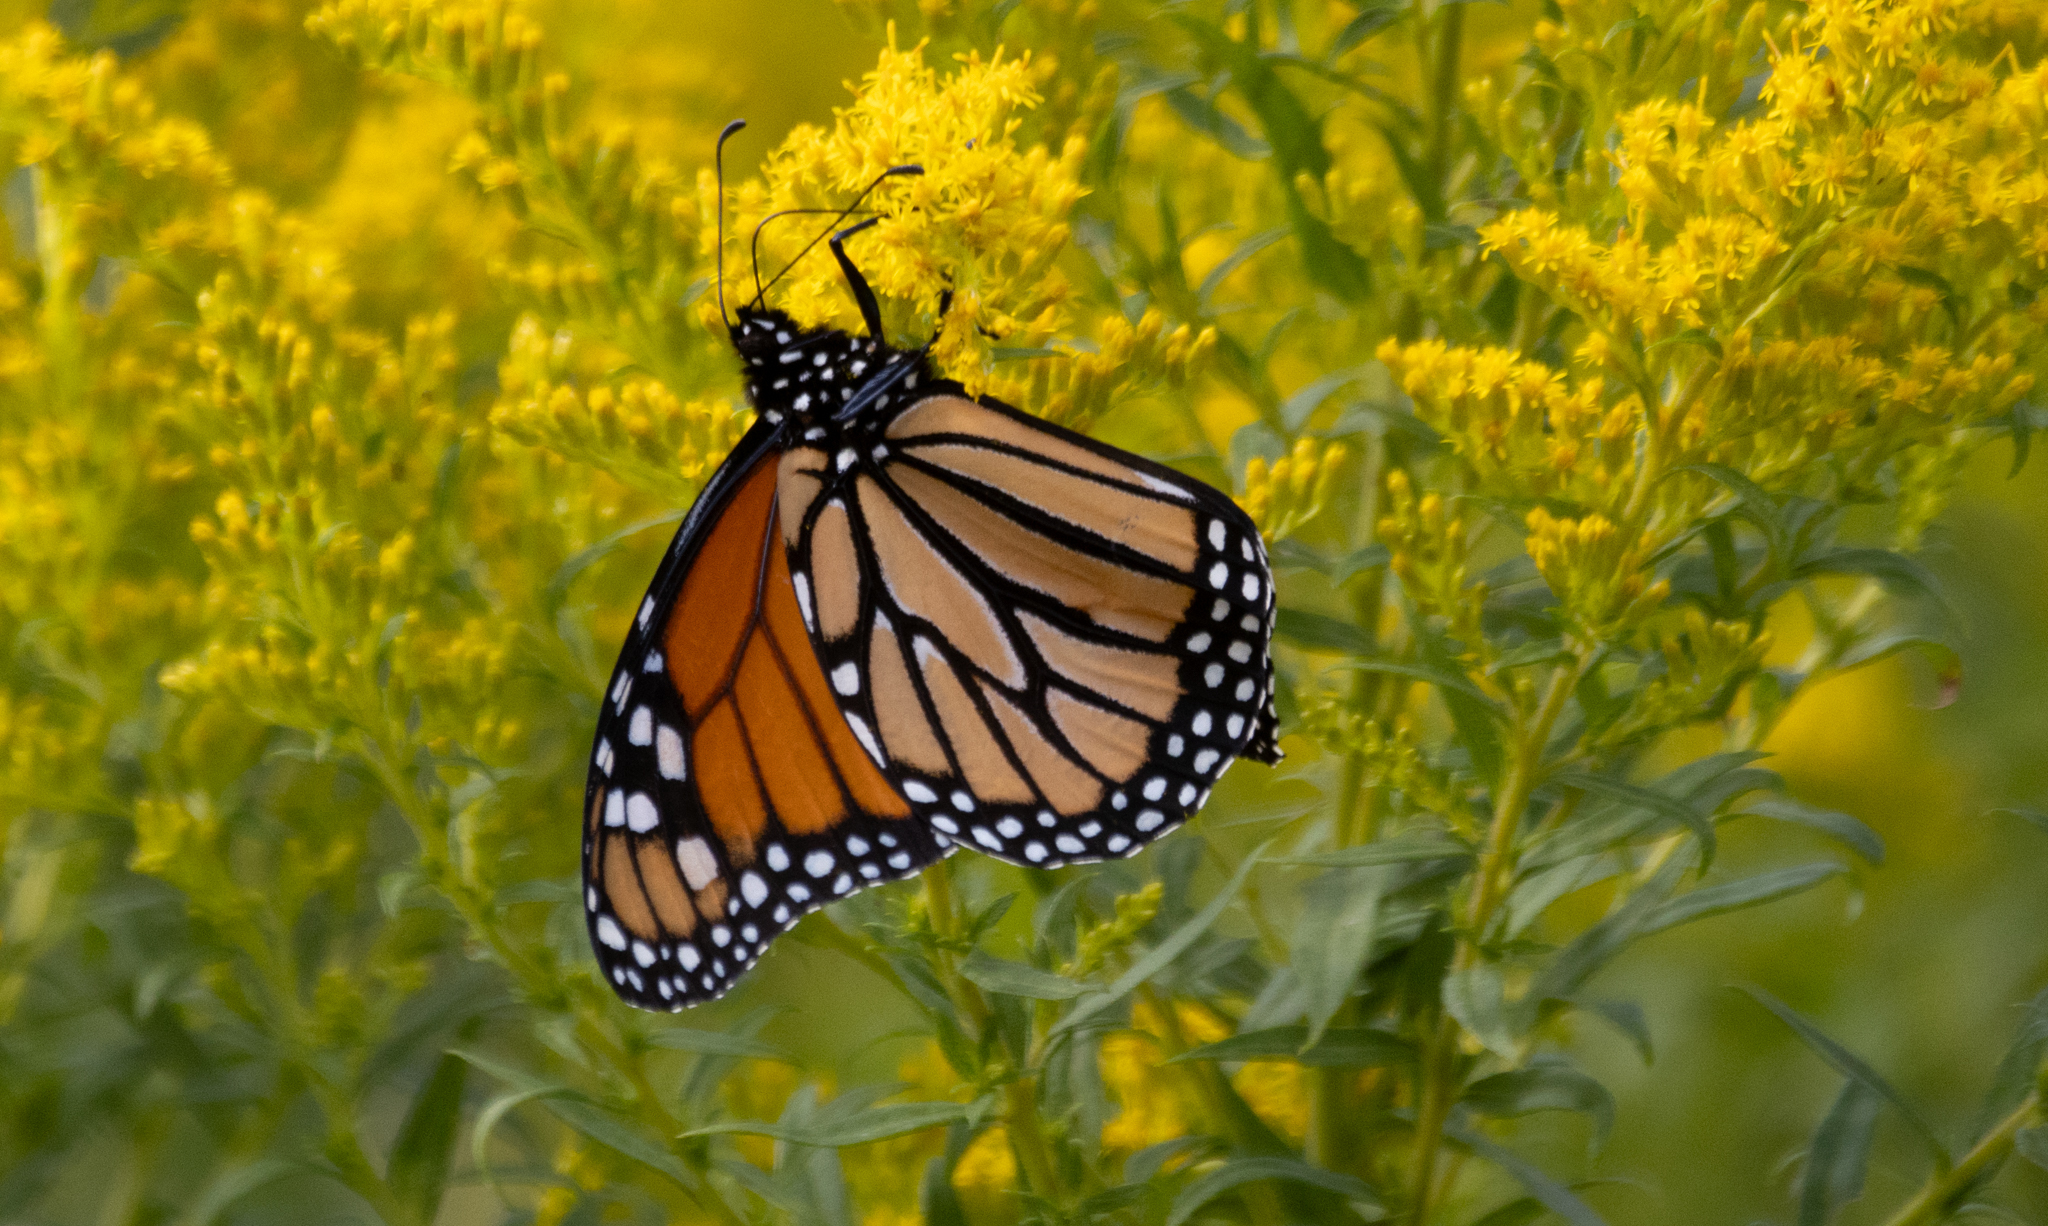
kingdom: Animalia
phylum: Arthropoda
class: Insecta
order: Lepidoptera
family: Nymphalidae
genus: Danaus
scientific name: Danaus plexippus
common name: Monarch
